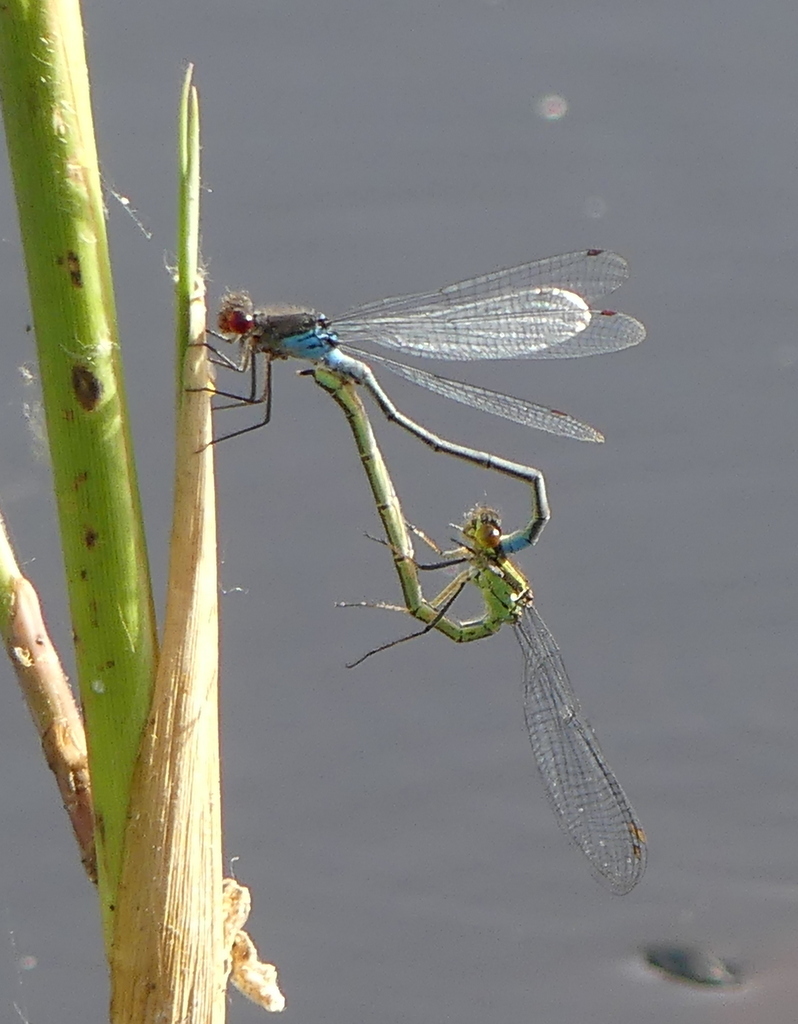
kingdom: Animalia
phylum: Arthropoda
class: Insecta
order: Odonata
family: Coenagrionidae
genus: Erythromma
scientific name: Erythromma najas
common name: Red-eyed damselfly
